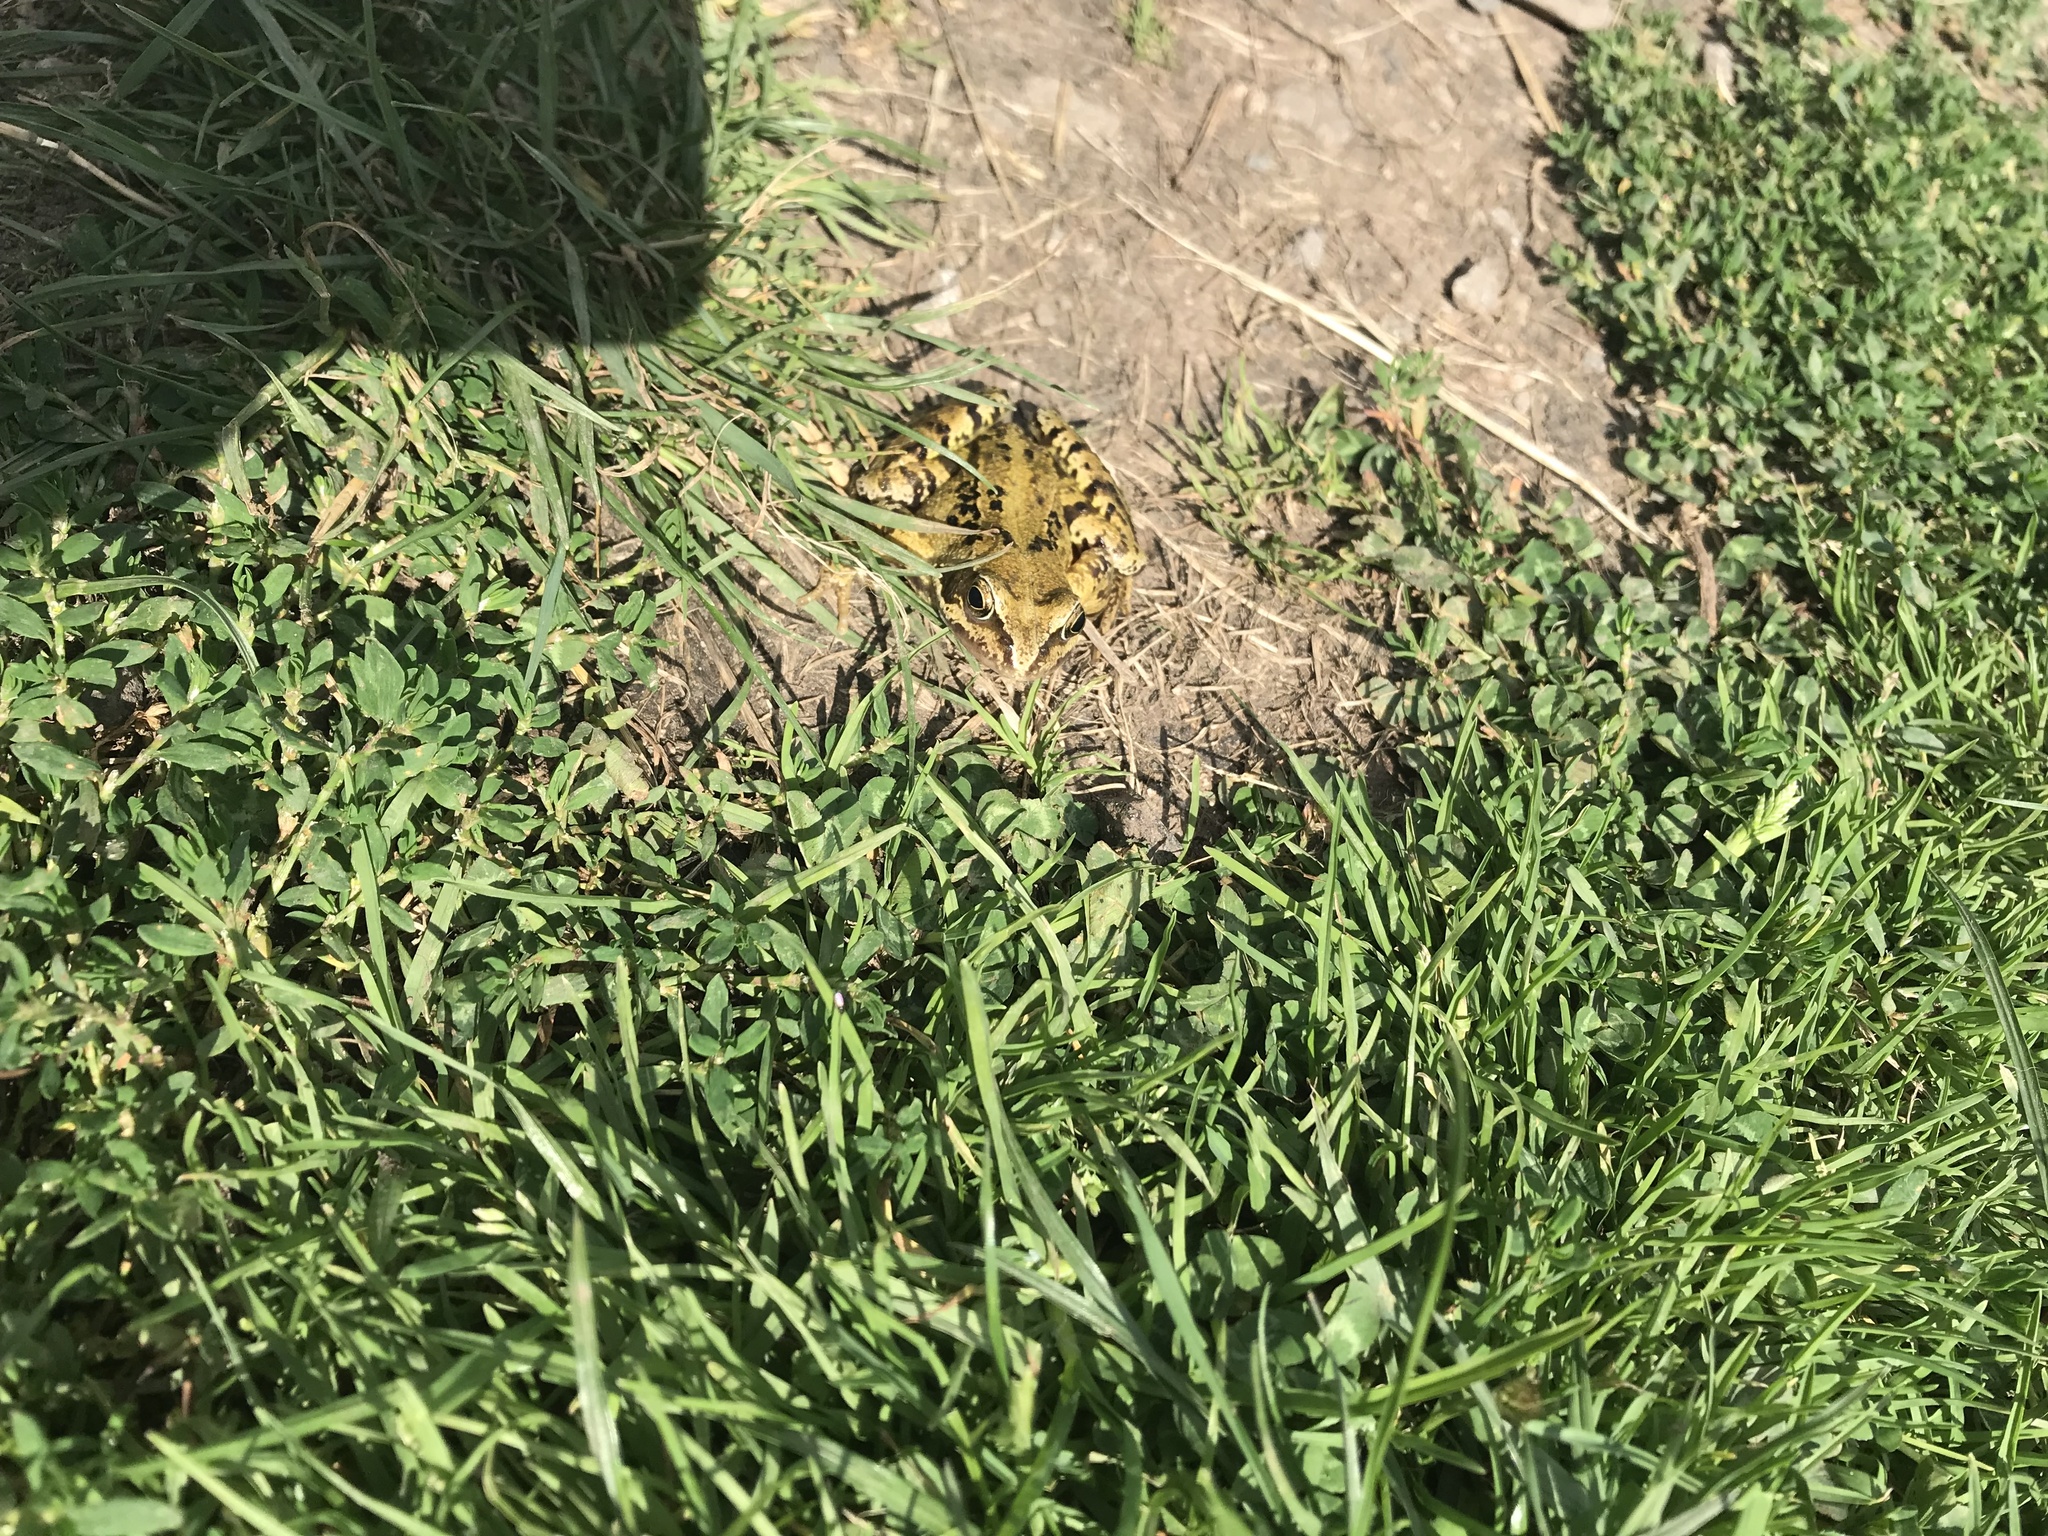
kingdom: Animalia
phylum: Chordata
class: Amphibia
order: Anura
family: Ranidae
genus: Rana
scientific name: Rana temporaria
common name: Common frog
